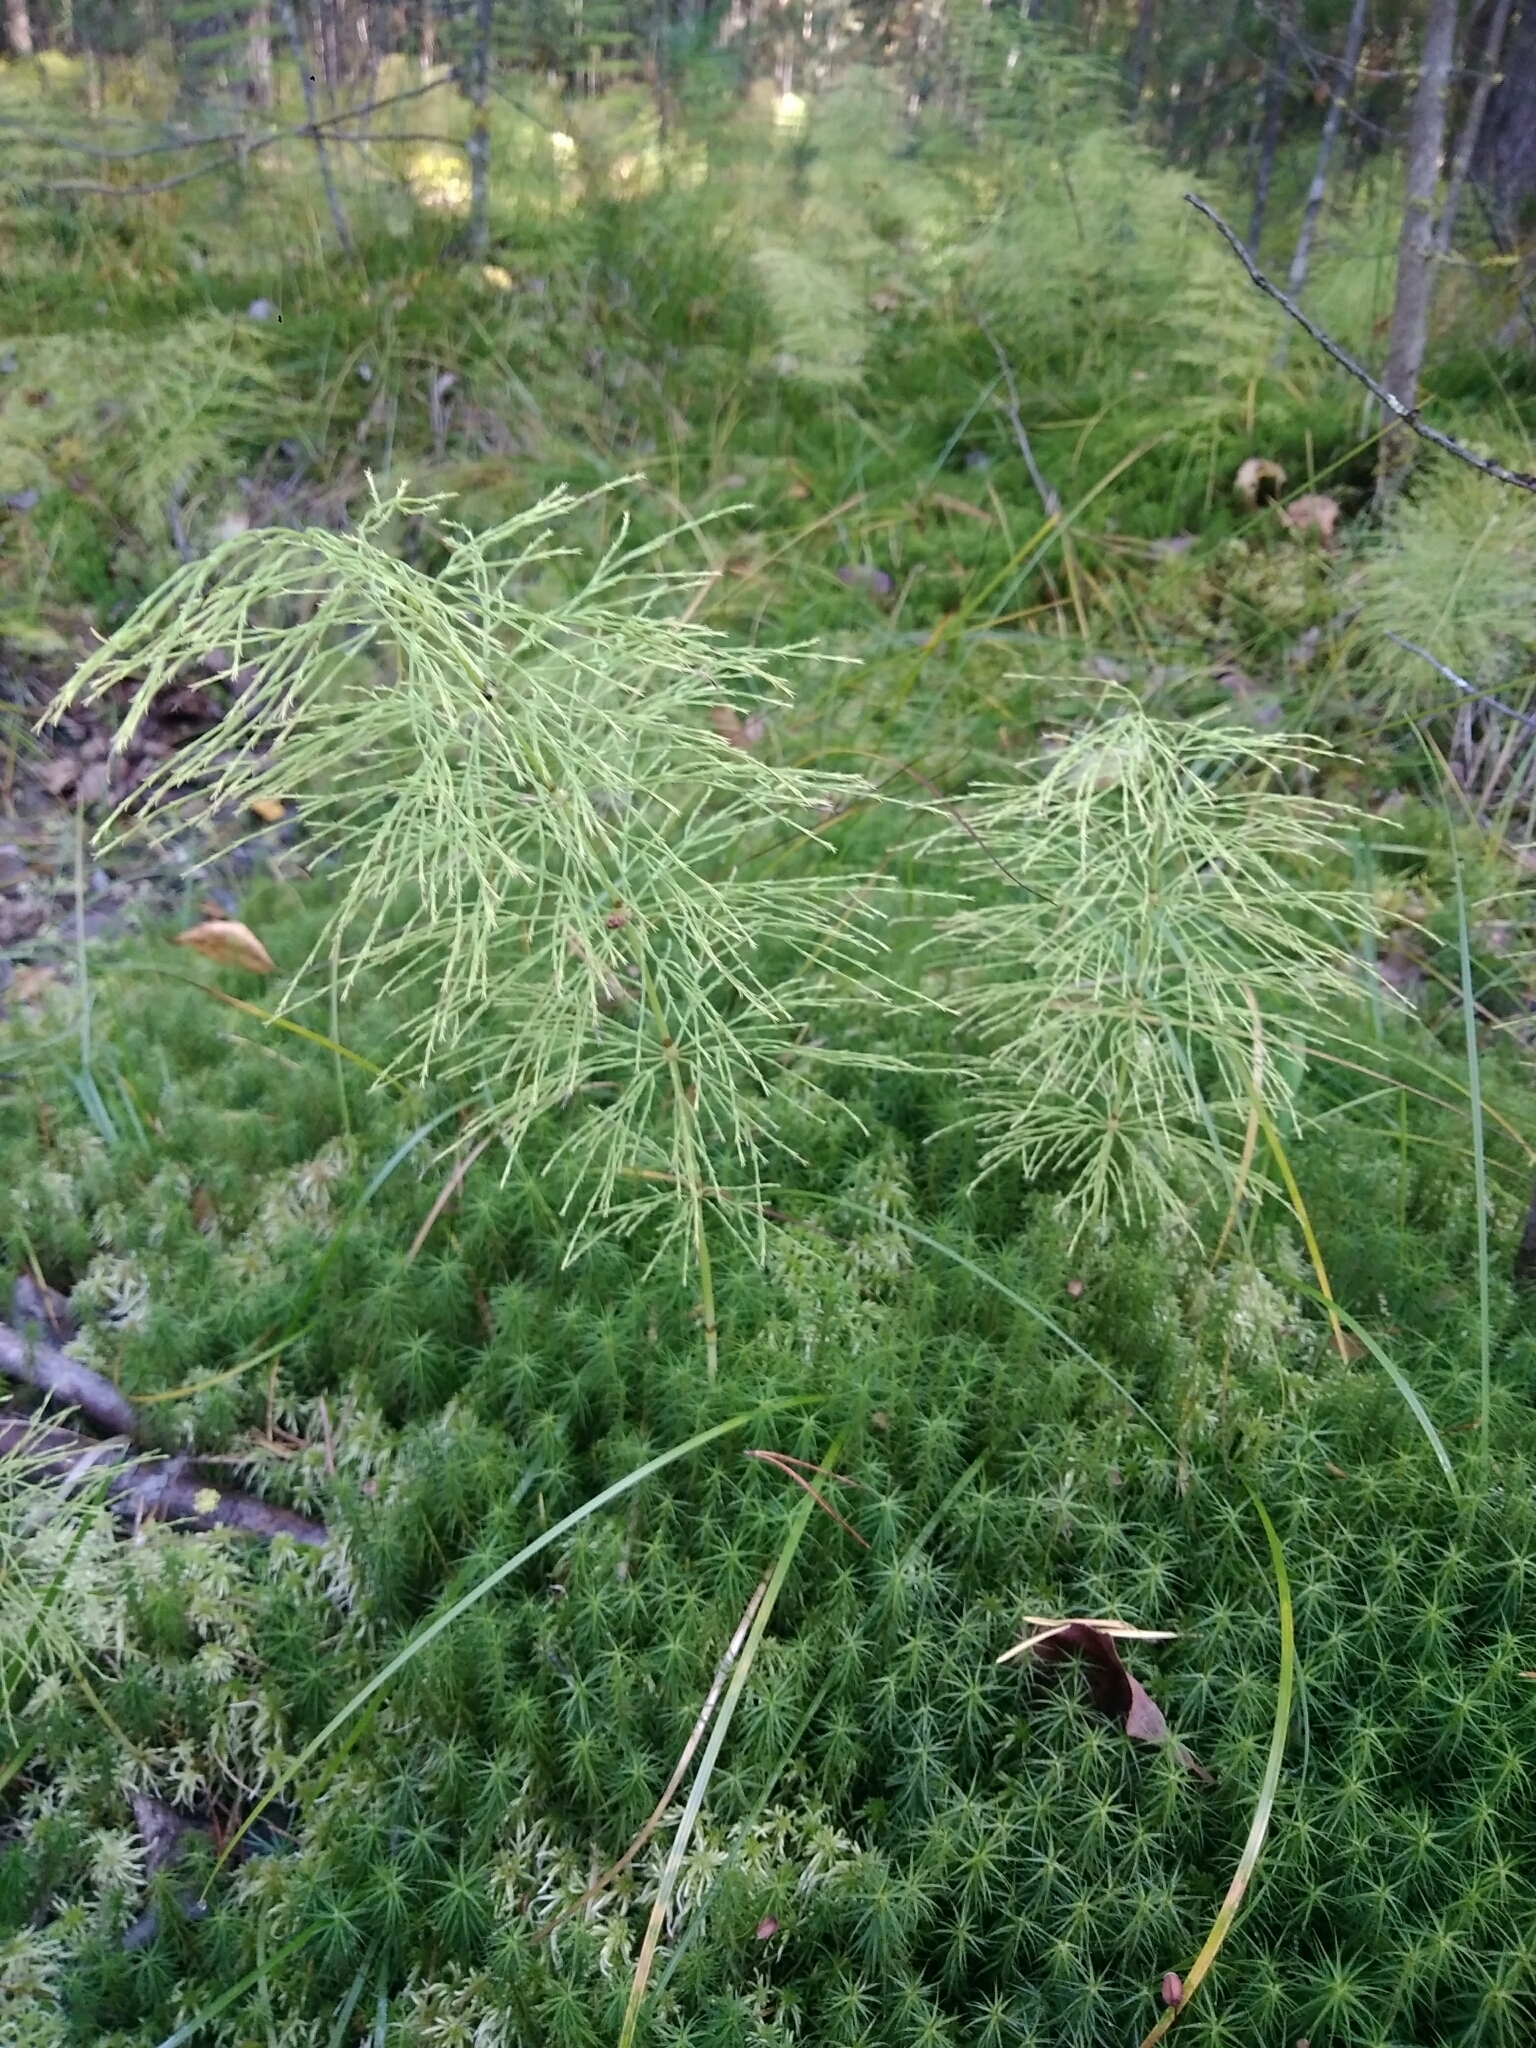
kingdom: Plantae
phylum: Tracheophyta
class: Polypodiopsida
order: Equisetales
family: Equisetaceae
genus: Equisetum
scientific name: Equisetum sylvaticum
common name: Wood horsetail
